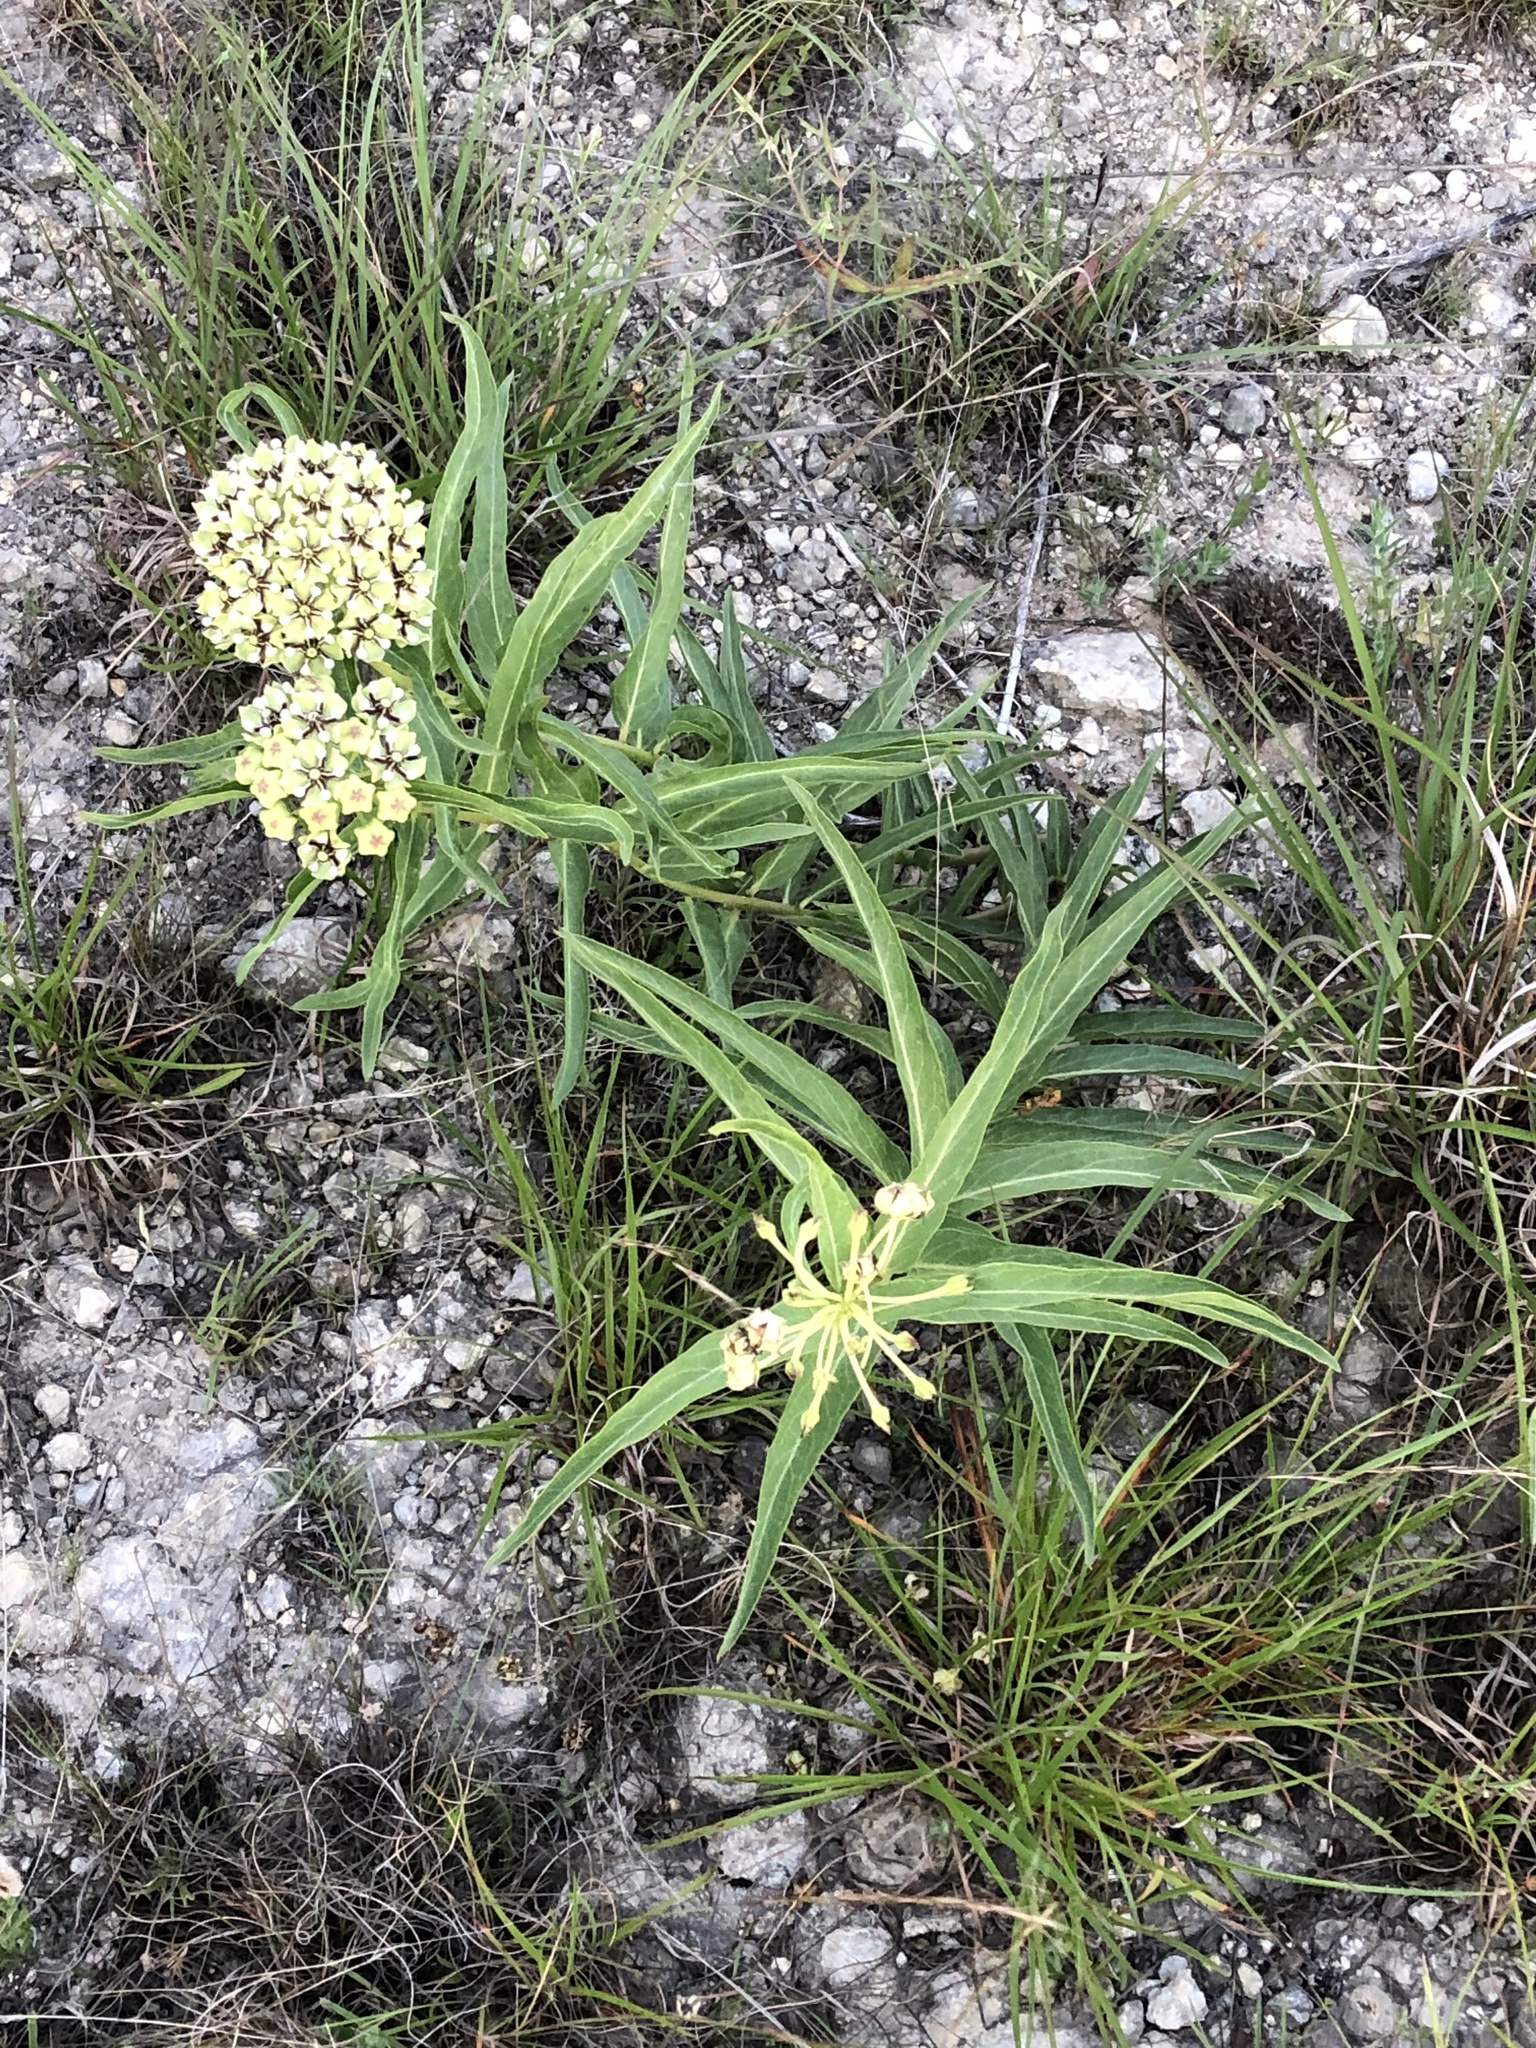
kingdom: Plantae
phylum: Tracheophyta
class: Magnoliopsida
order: Gentianales
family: Apocynaceae
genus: Asclepias
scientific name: Asclepias asperula
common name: Antelope horns
